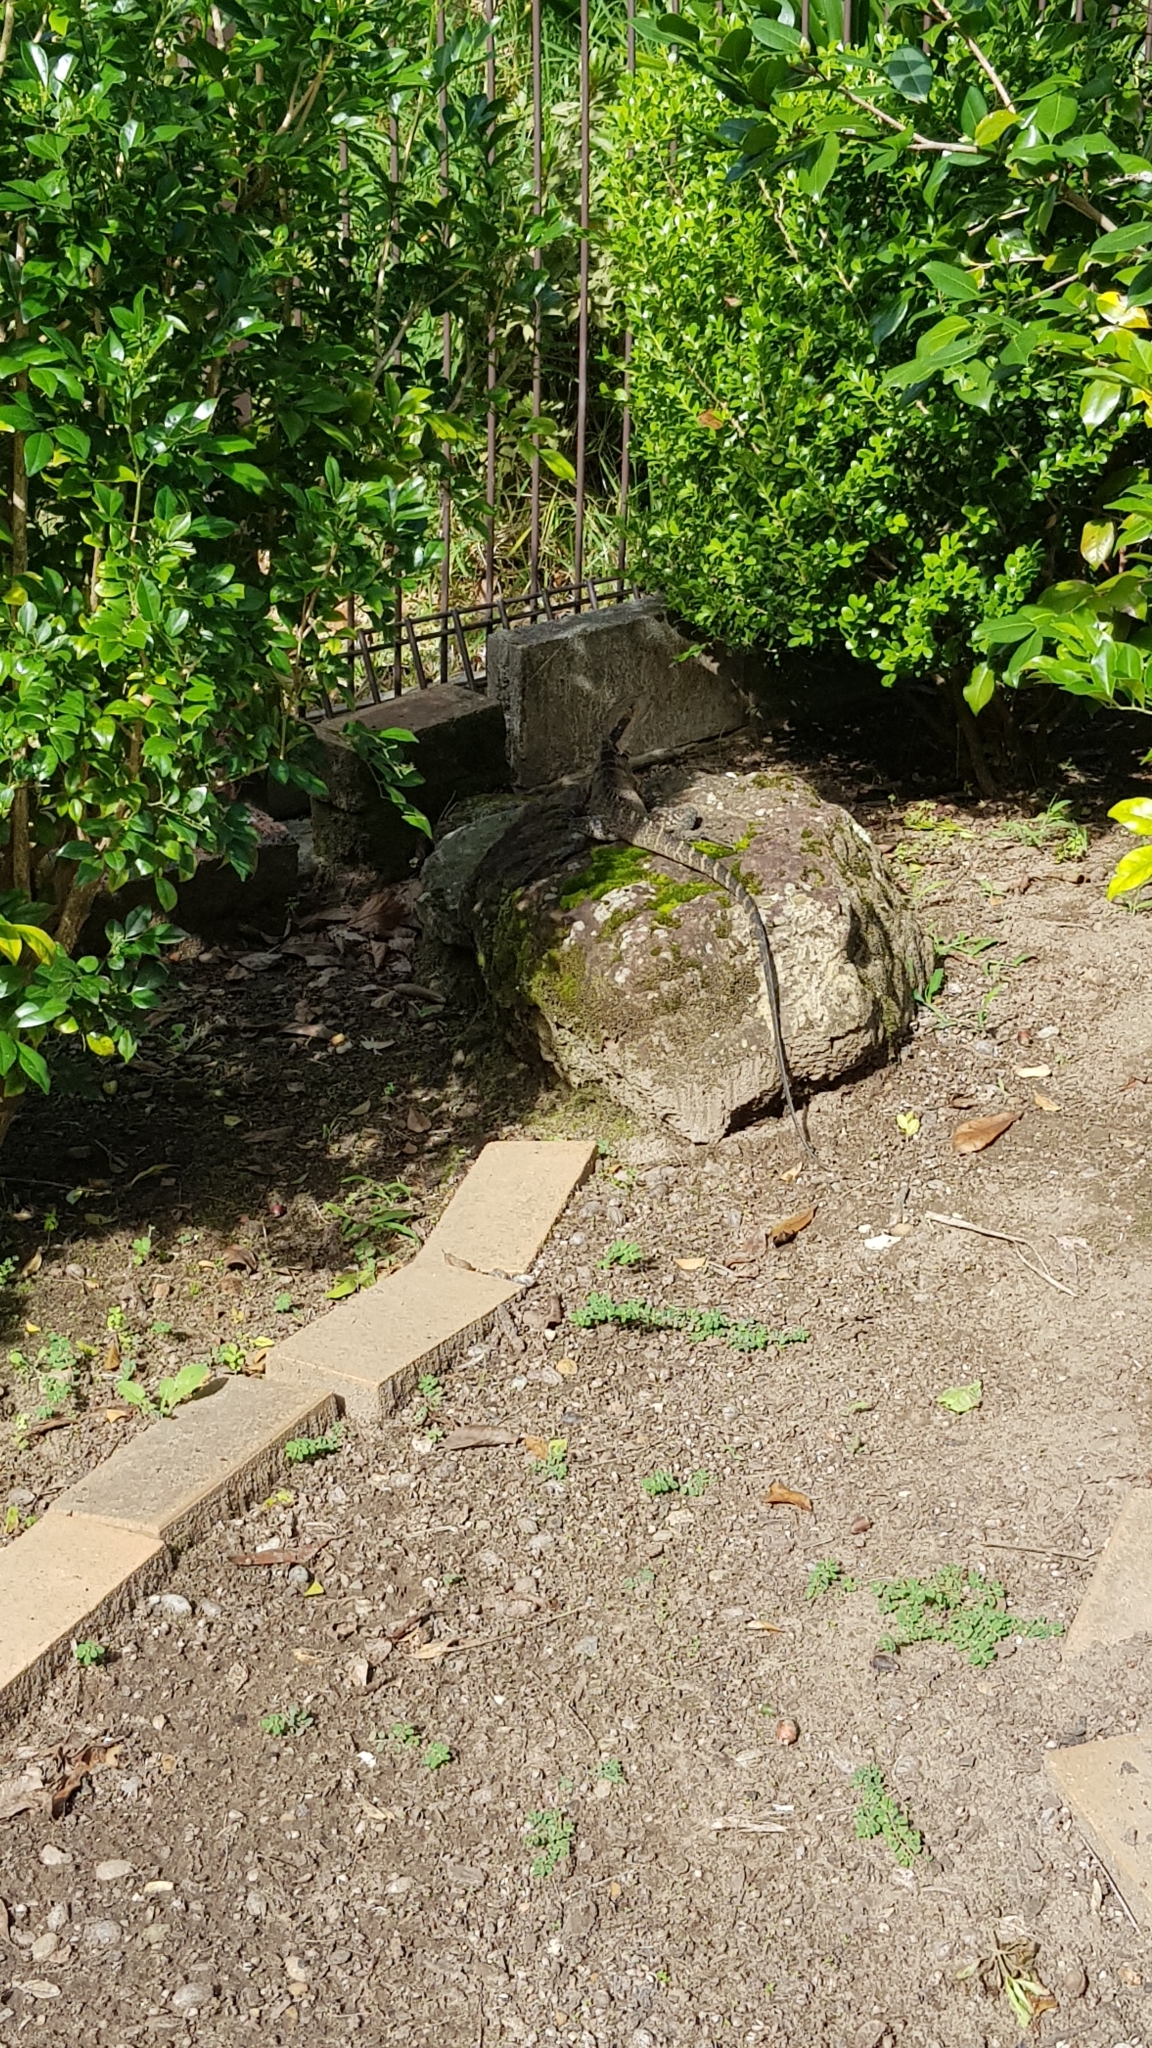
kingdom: Animalia
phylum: Chordata
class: Squamata
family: Agamidae
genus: Intellagama
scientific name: Intellagama lesueurii
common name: Eastern water dragon
